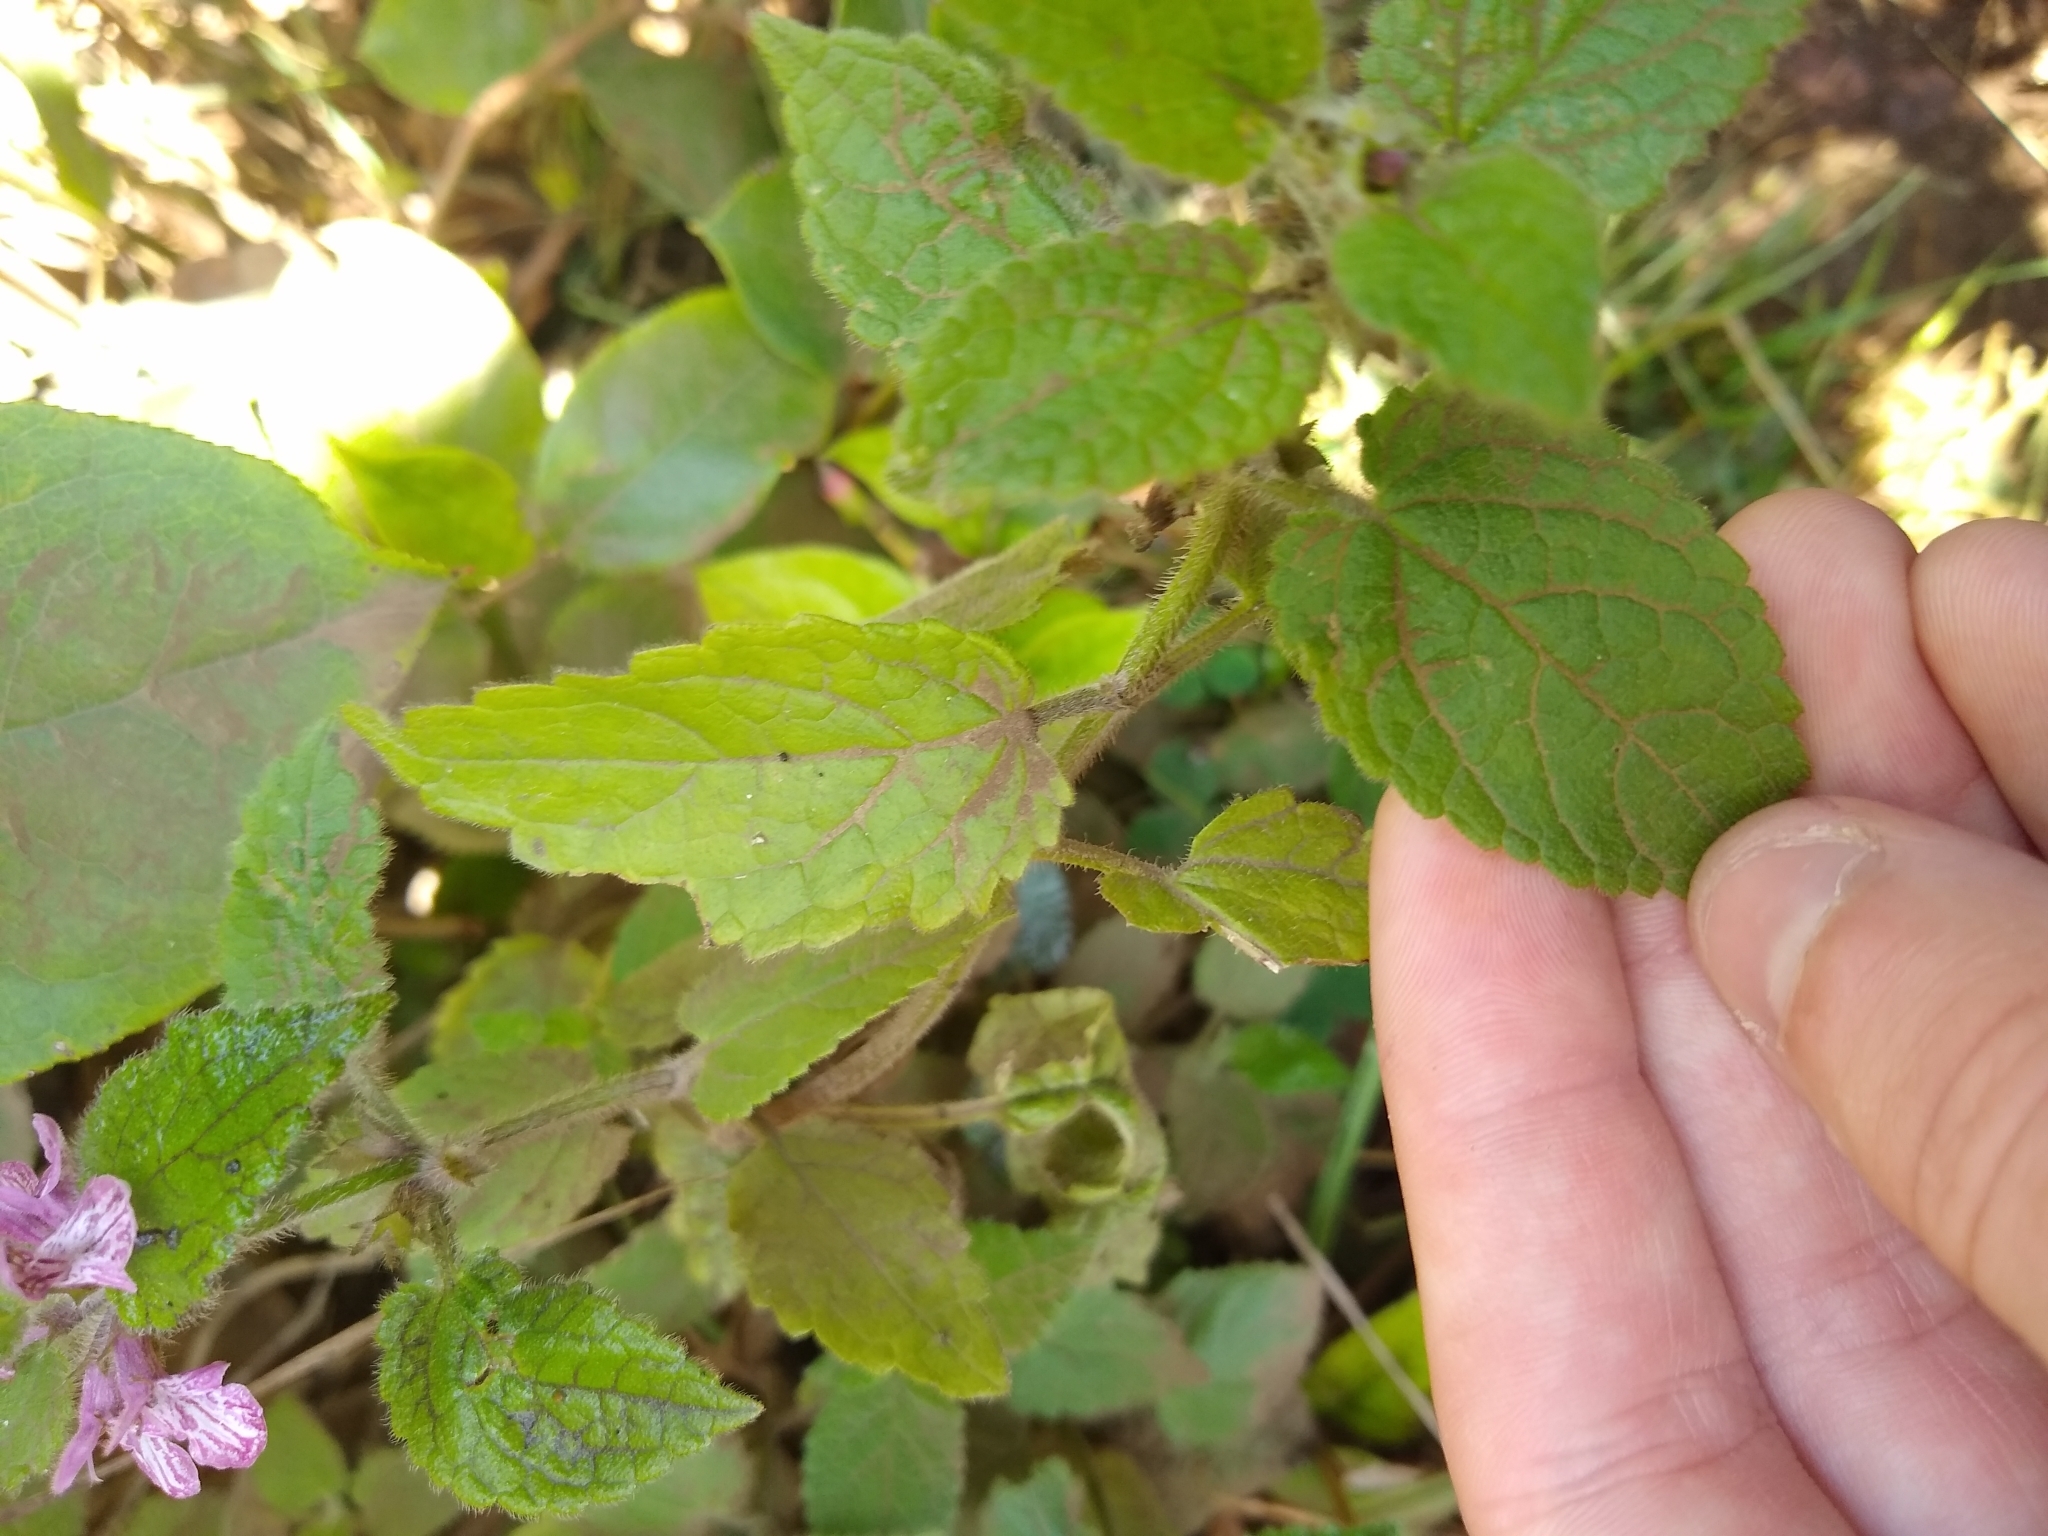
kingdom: Plantae
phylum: Tracheophyta
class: Magnoliopsida
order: Lamiales
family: Lamiaceae
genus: Stachys
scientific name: Stachys mexicana
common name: Mexican hedge-nettle
